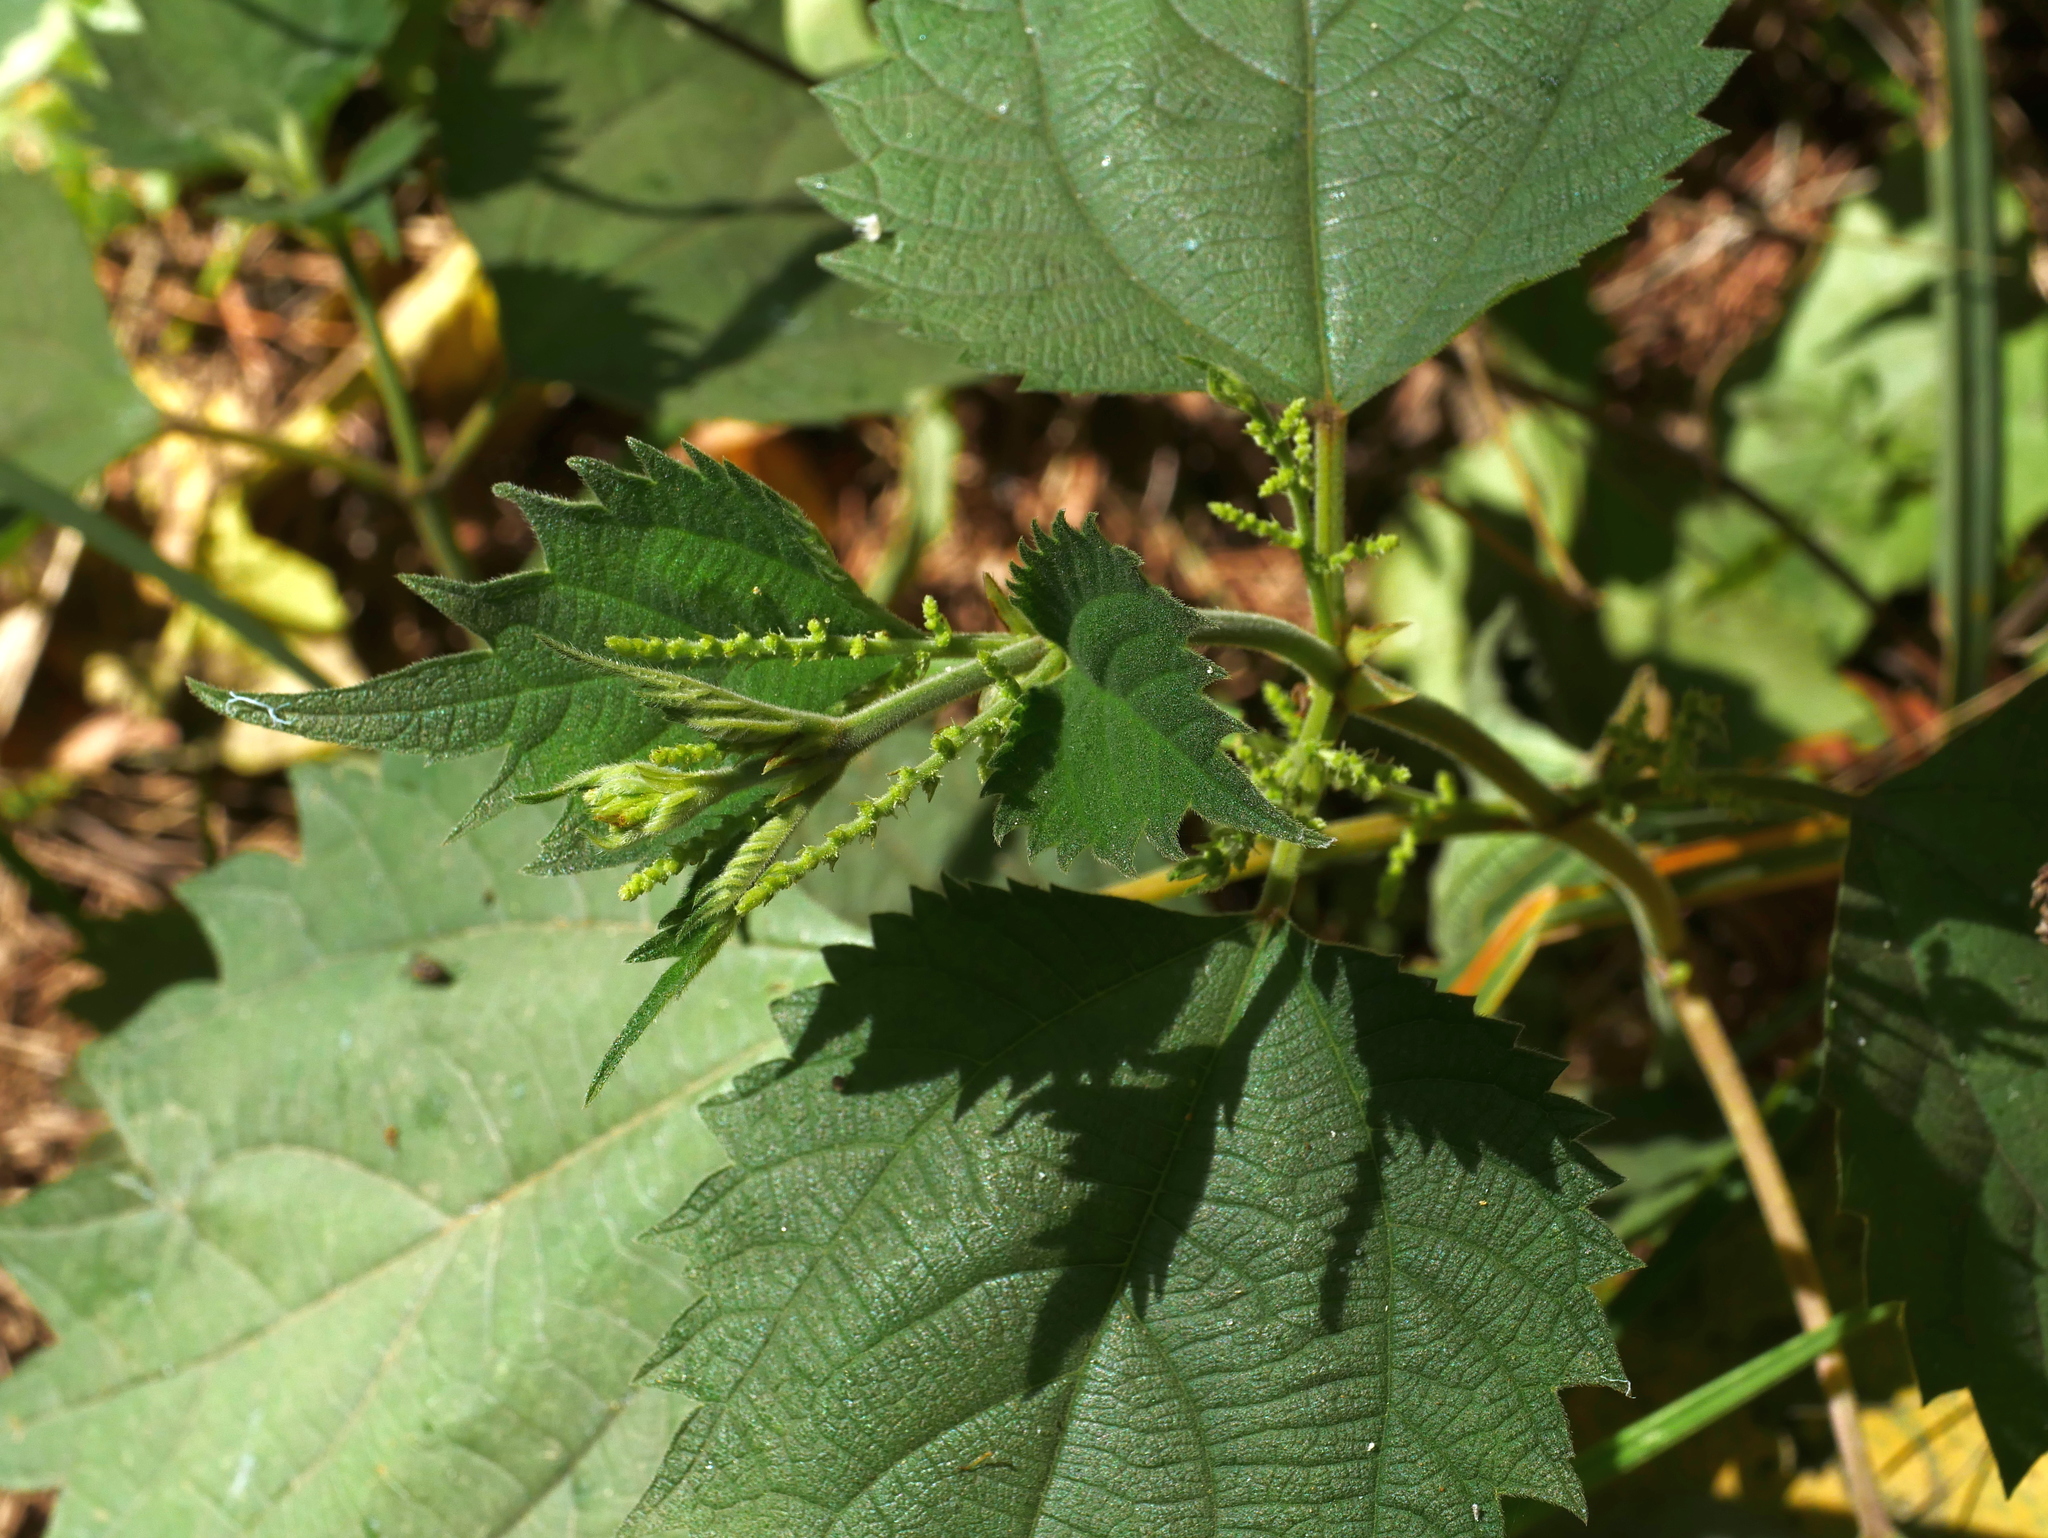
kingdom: Plantae
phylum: Tracheophyta
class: Magnoliopsida
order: Rosales
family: Urticaceae
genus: Boehmeria
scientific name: Boehmeria japonica
